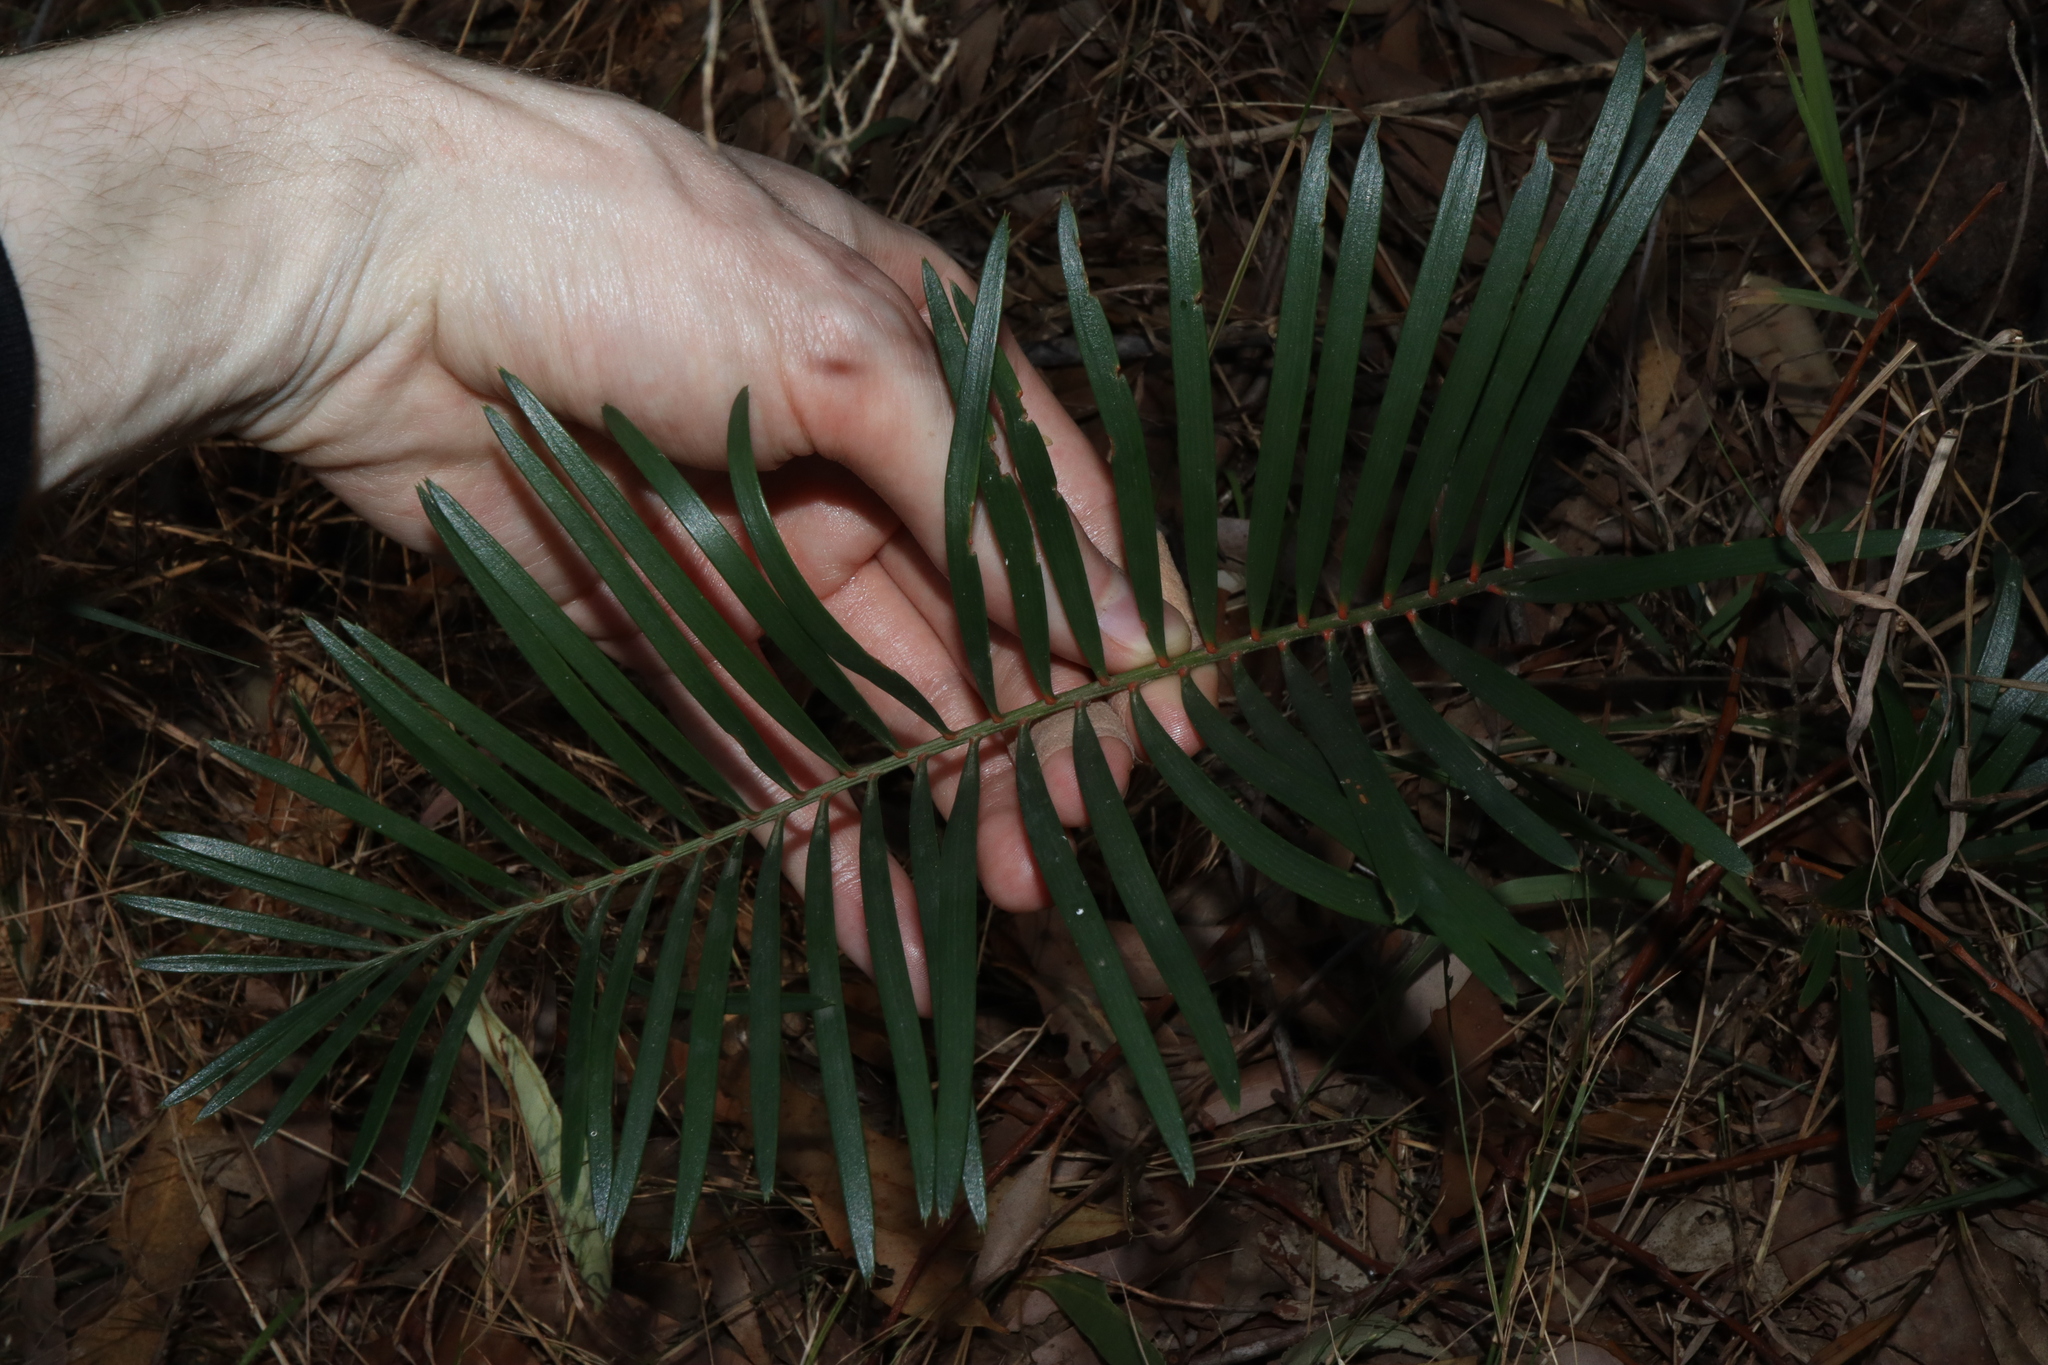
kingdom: Plantae
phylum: Tracheophyta
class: Cycadopsida
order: Cycadales
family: Zamiaceae
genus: Macrozamia
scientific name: Macrozamia spiralis
